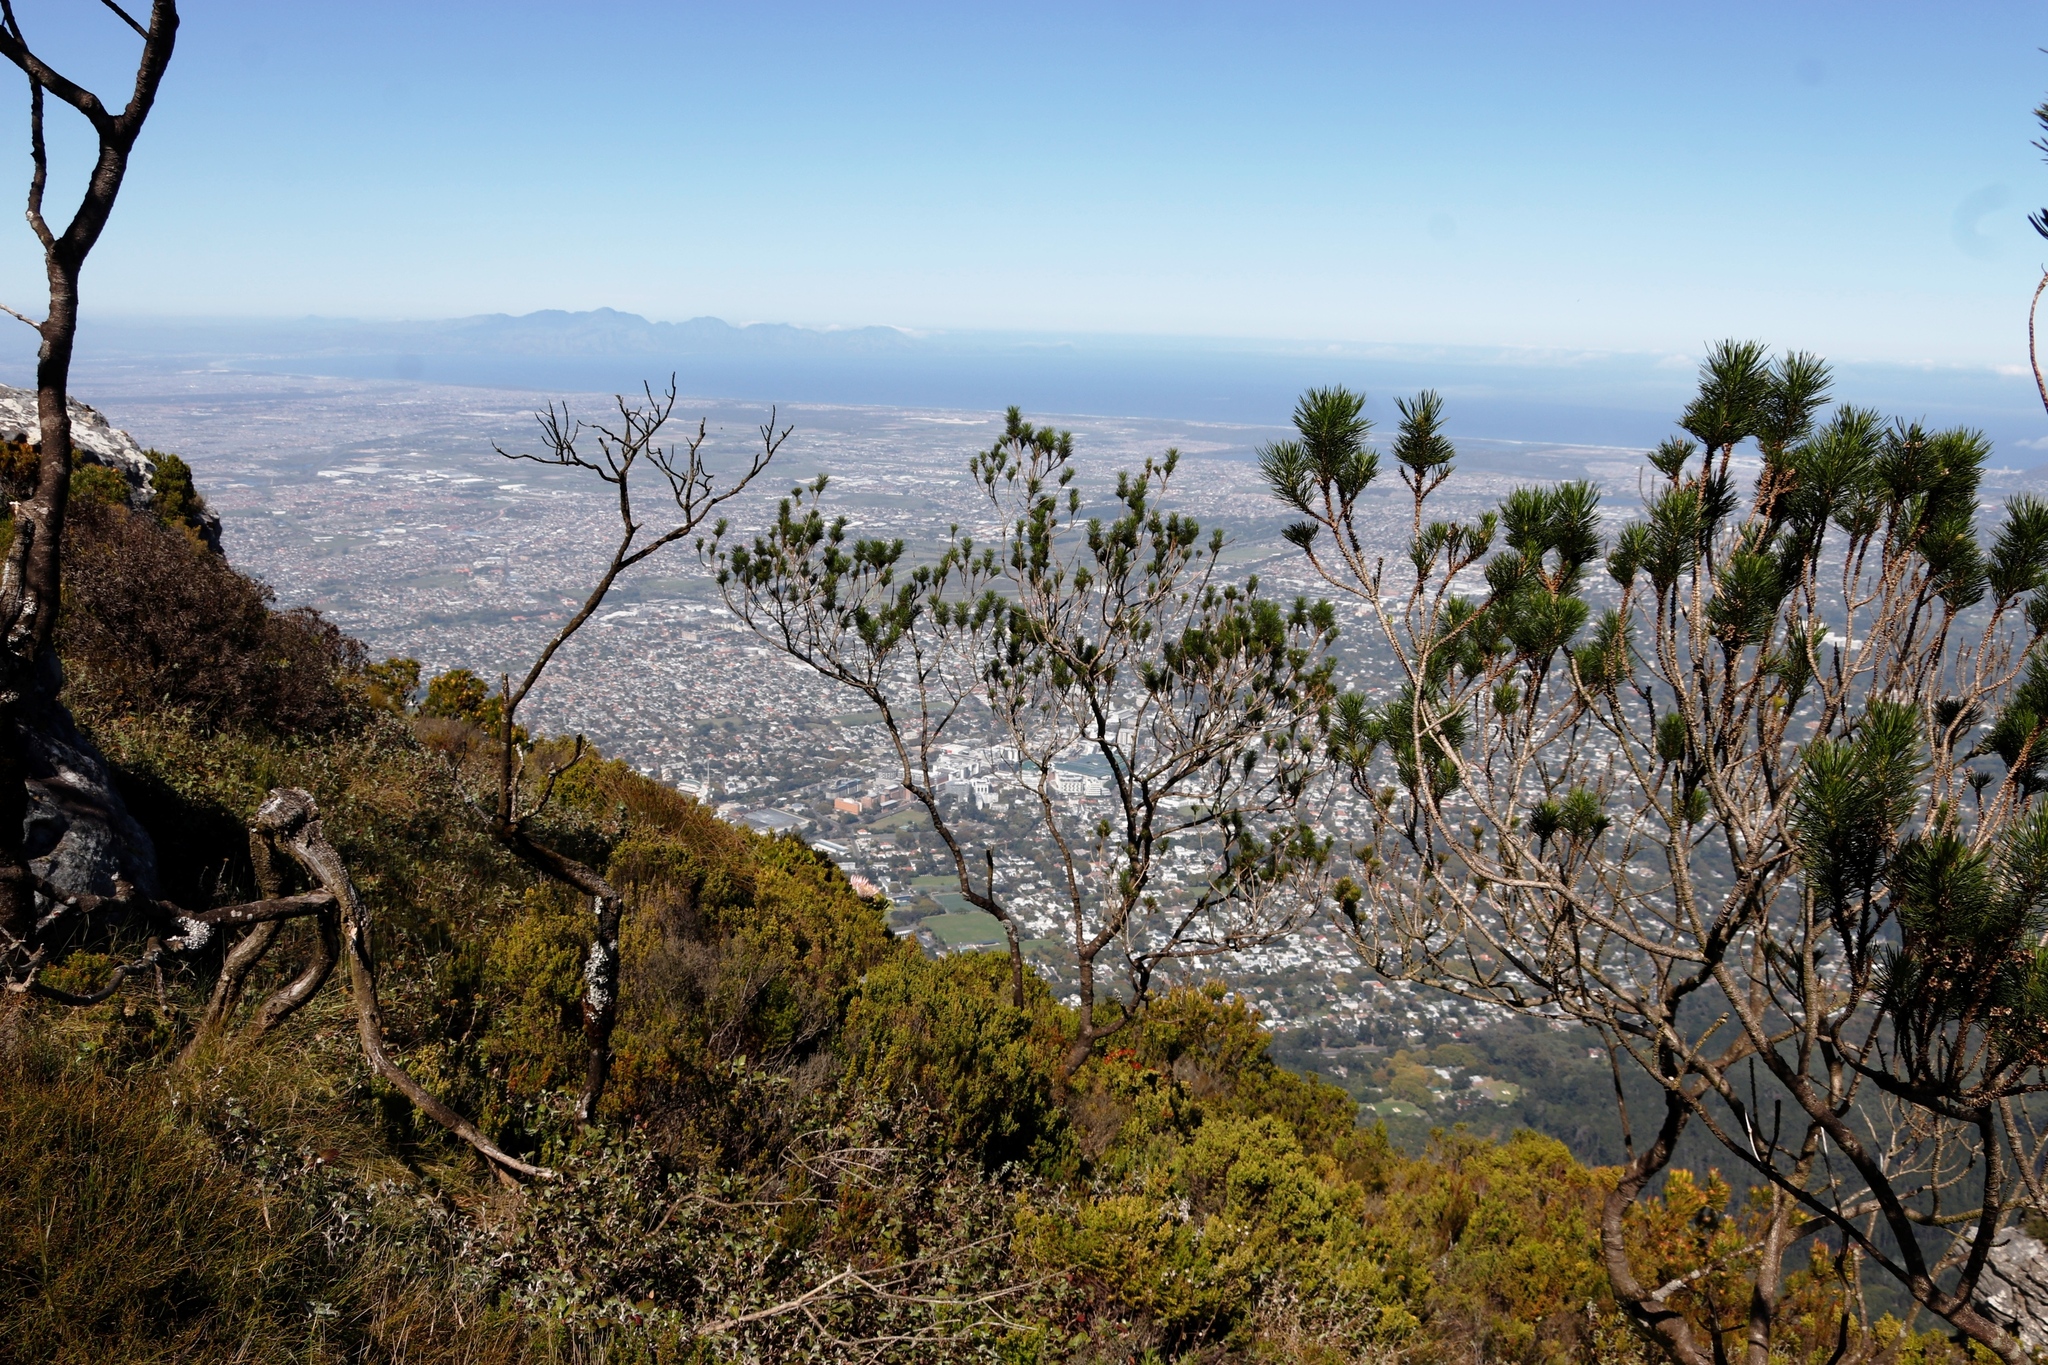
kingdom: Plantae
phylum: Tracheophyta
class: Magnoliopsida
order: Fabales
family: Fabaceae
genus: Psoralea
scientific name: Psoralea pinnata
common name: African scurfpea
